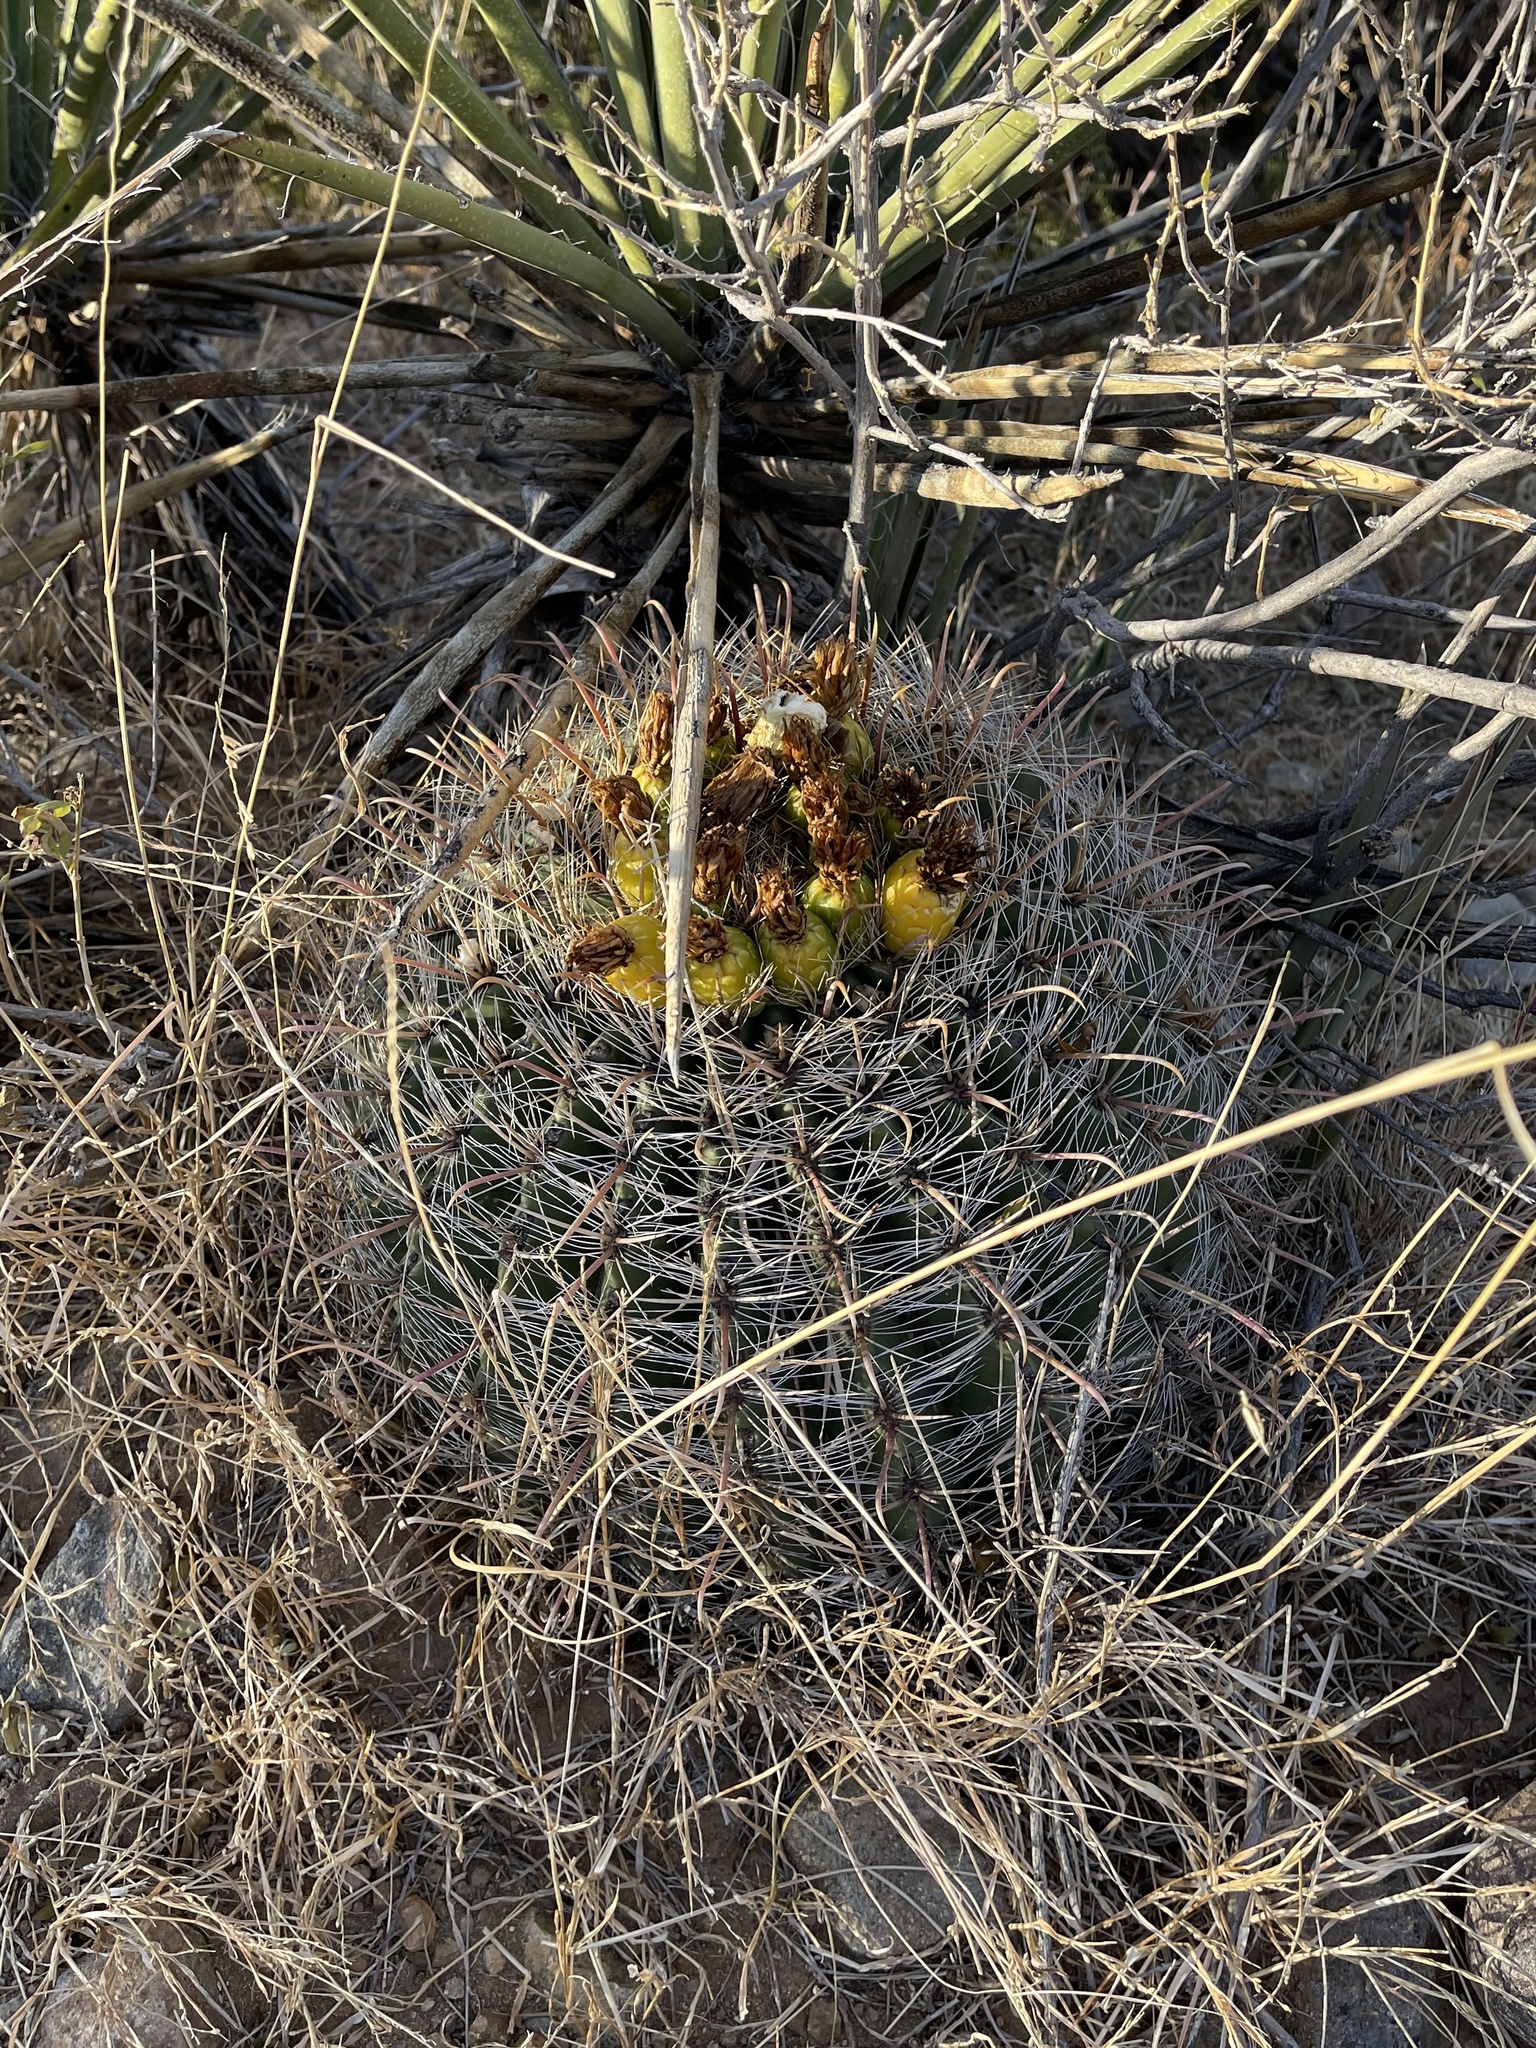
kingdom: Plantae
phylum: Tracheophyta
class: Magnoliopsida
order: Caryophyllales
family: Cactaceae
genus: Ferocactus
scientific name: Ferocactus wislizeni
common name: Candy barrel cactus
